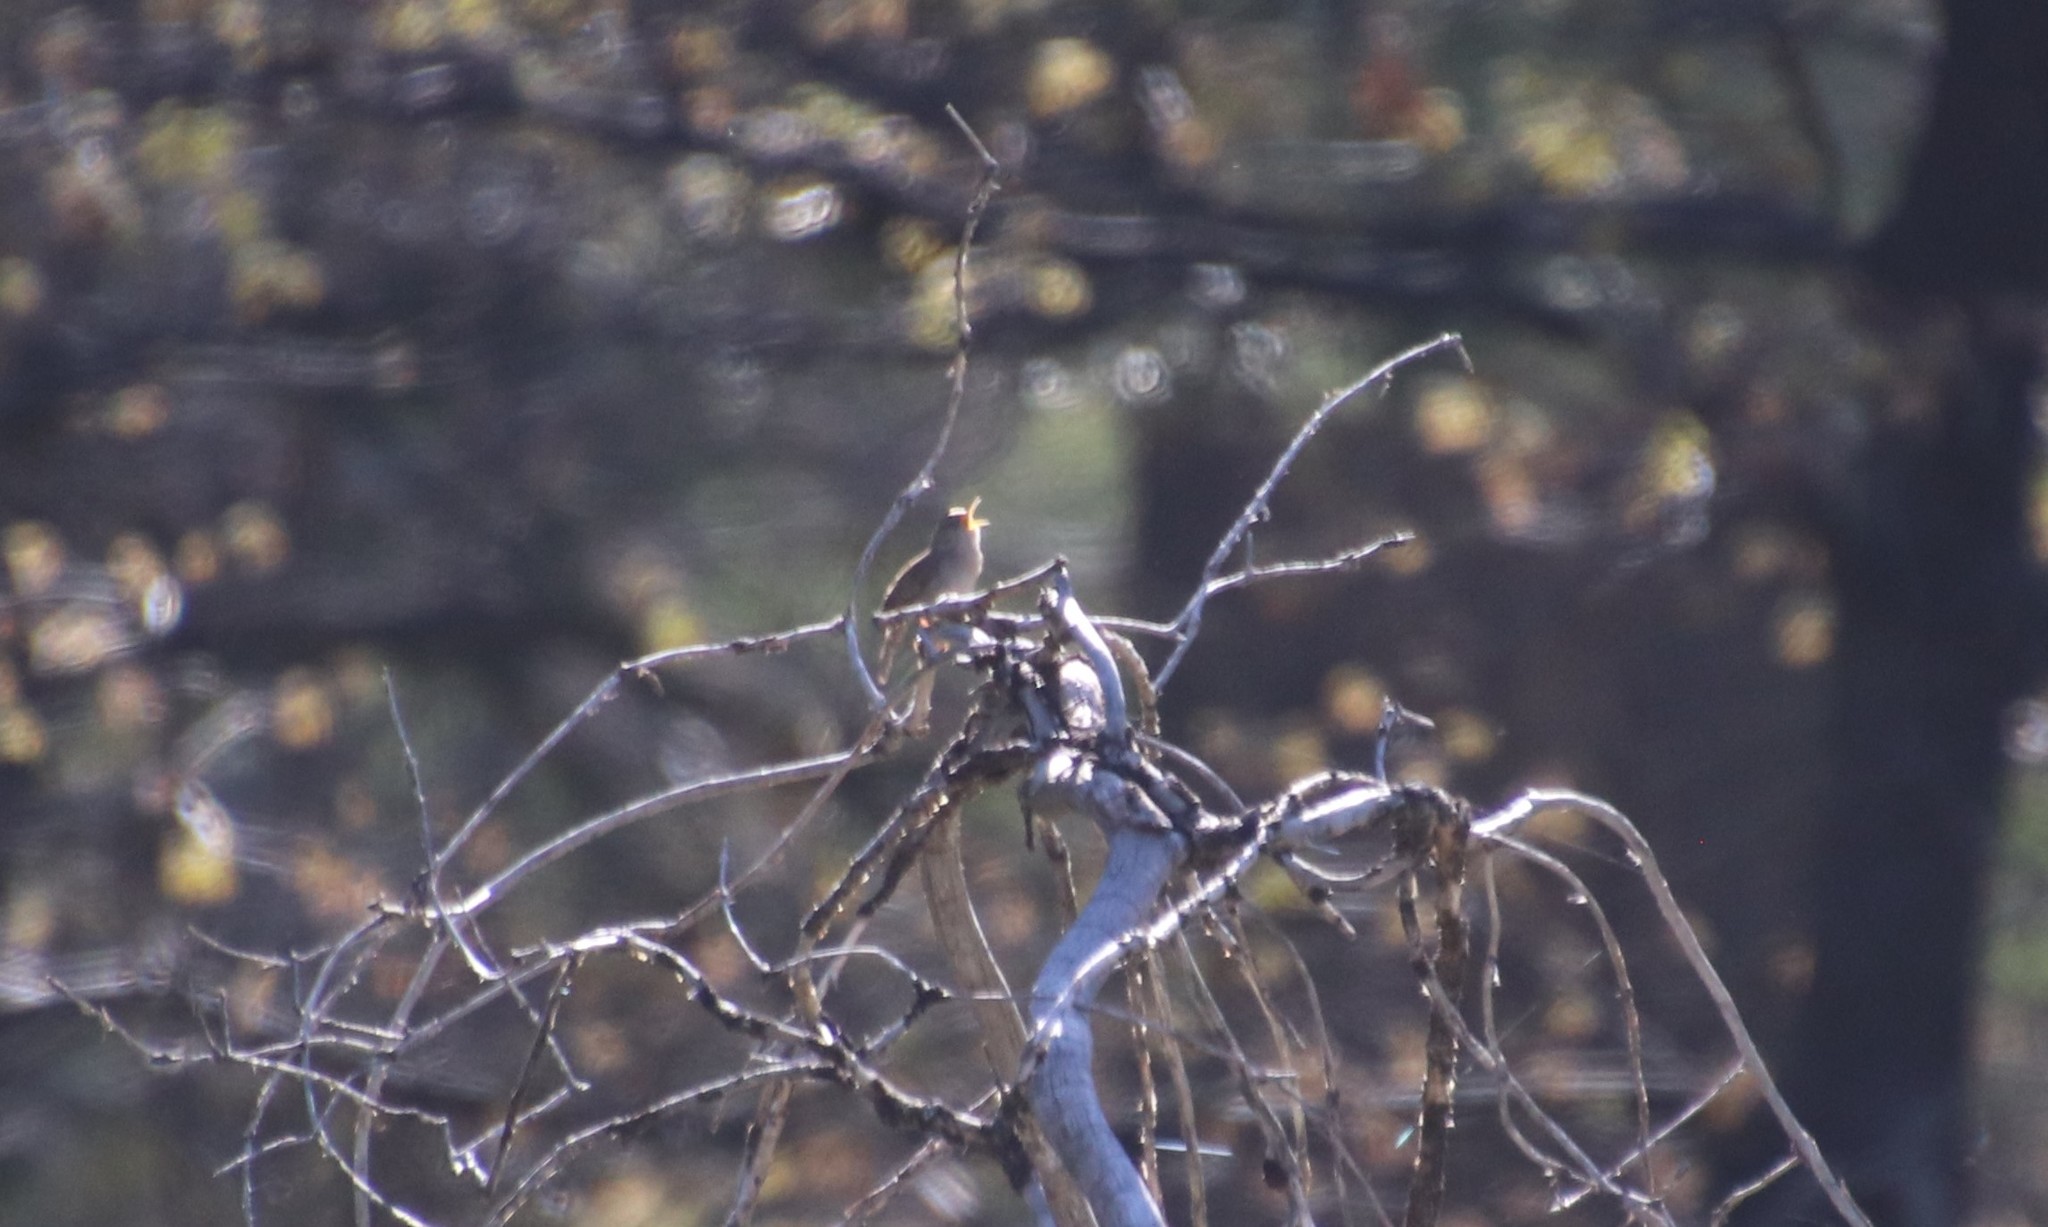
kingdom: Animalia
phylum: Chordata
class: Aves
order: Passeriformes
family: Troglodytidae
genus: Troglodytes
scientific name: Troglodytes aedon
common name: House wren
